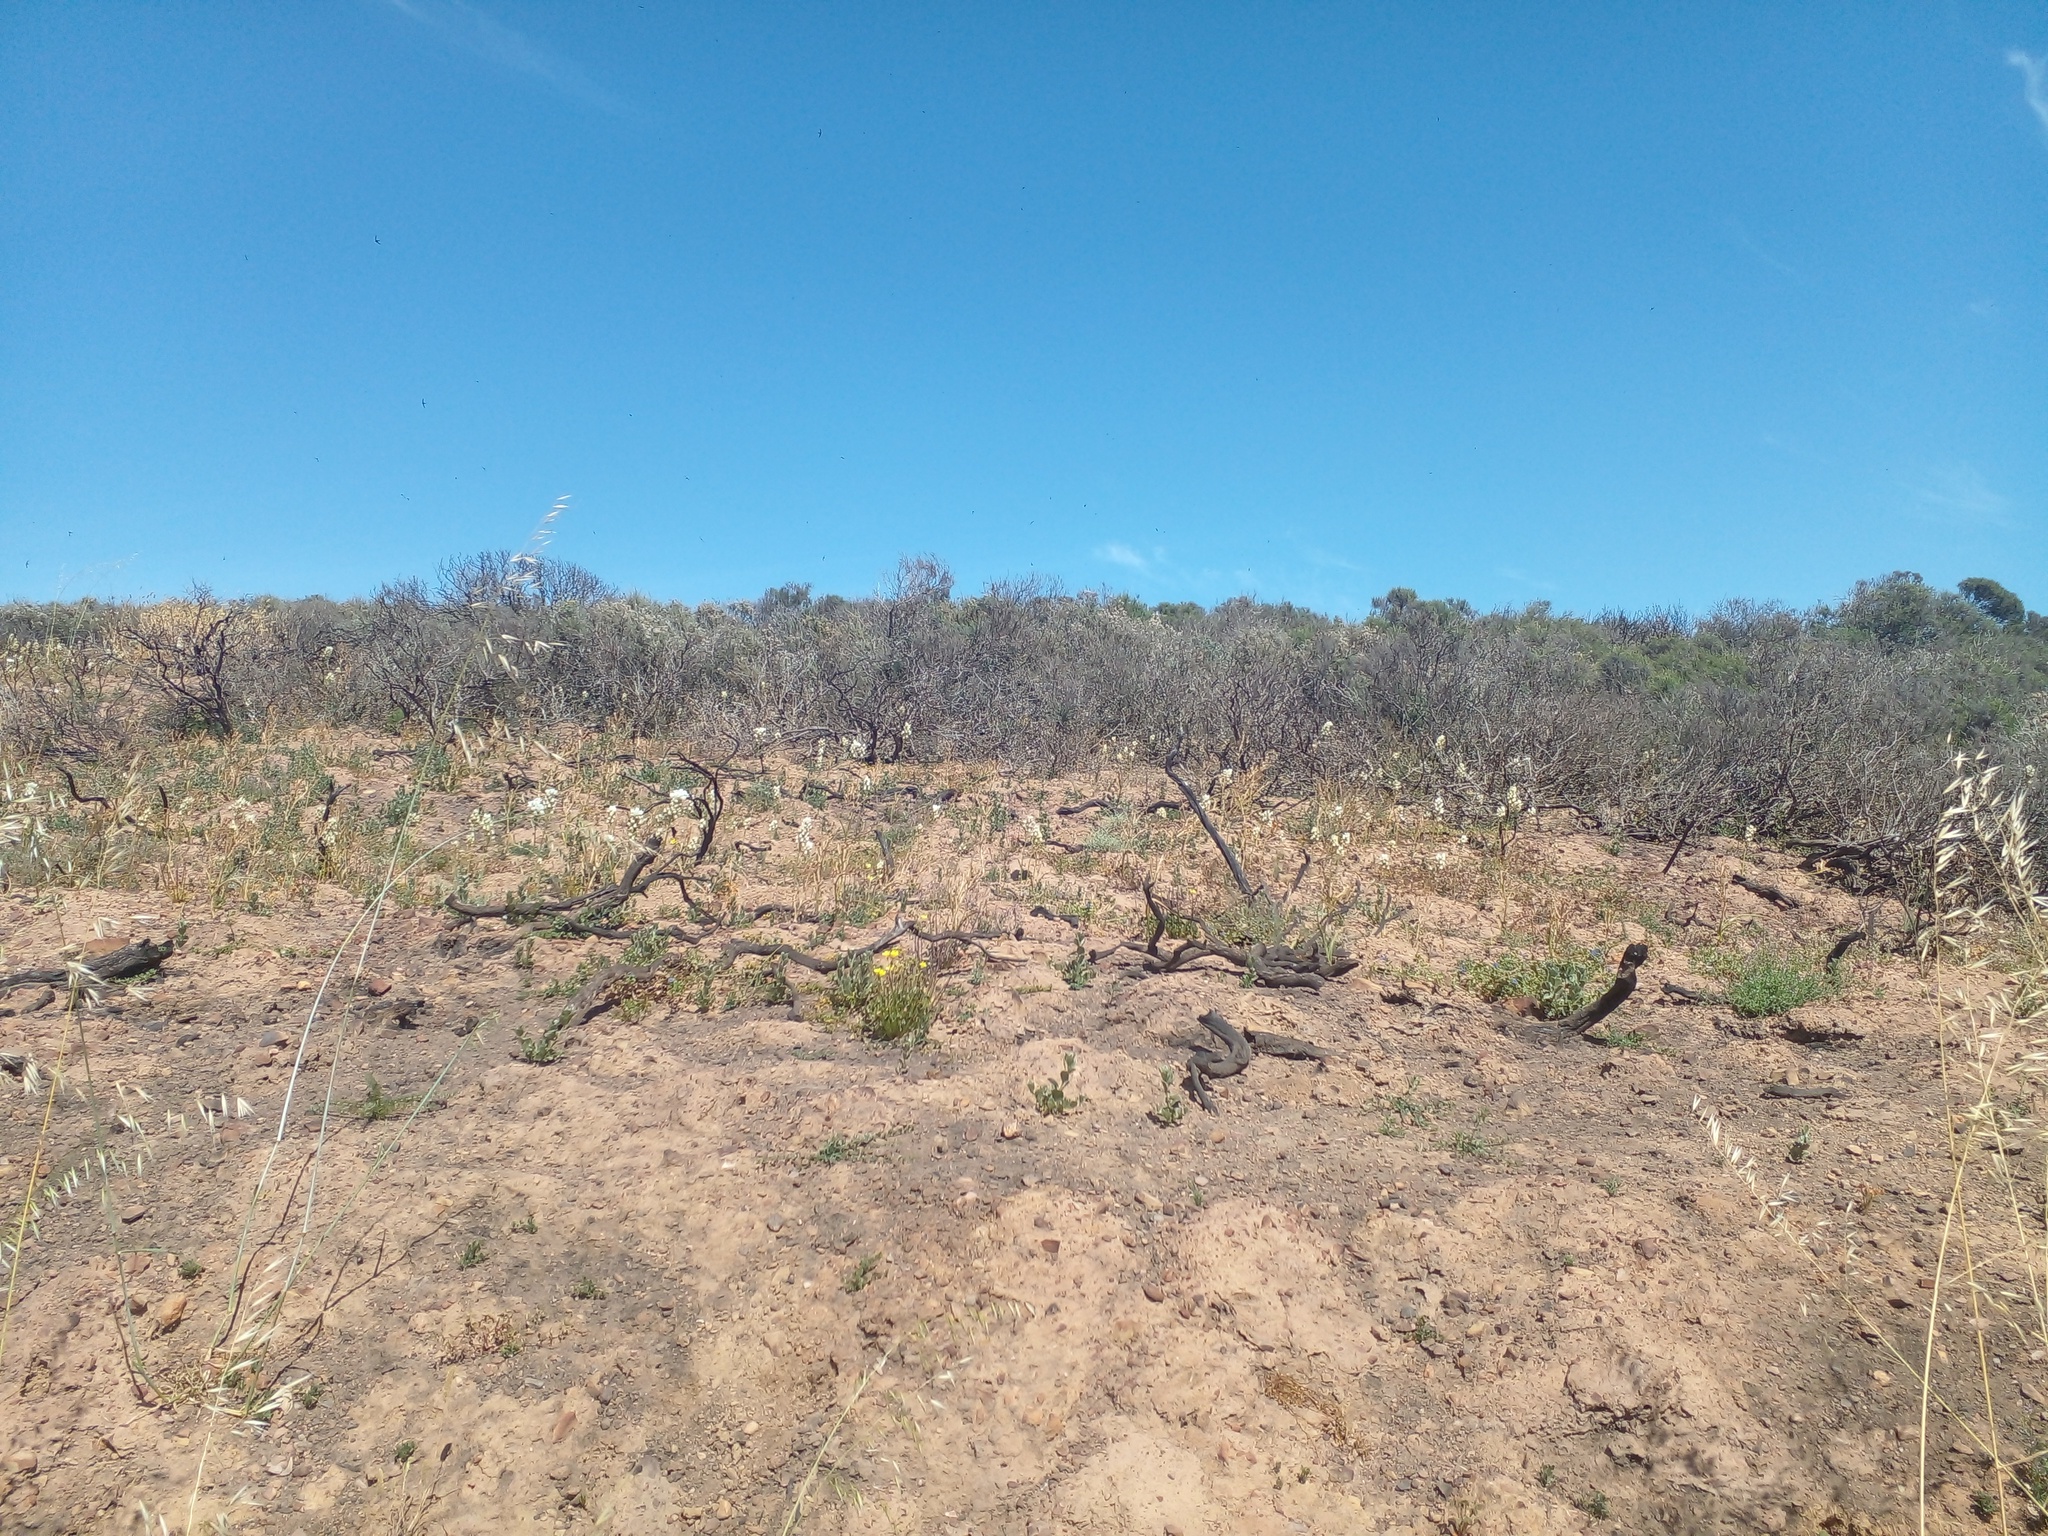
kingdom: Plantae
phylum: Tracheophyta
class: Magnoliopsida
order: Asterales
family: Asteraceae
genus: Dicerothamnus
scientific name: Dicerothamnus rhinocerotis
